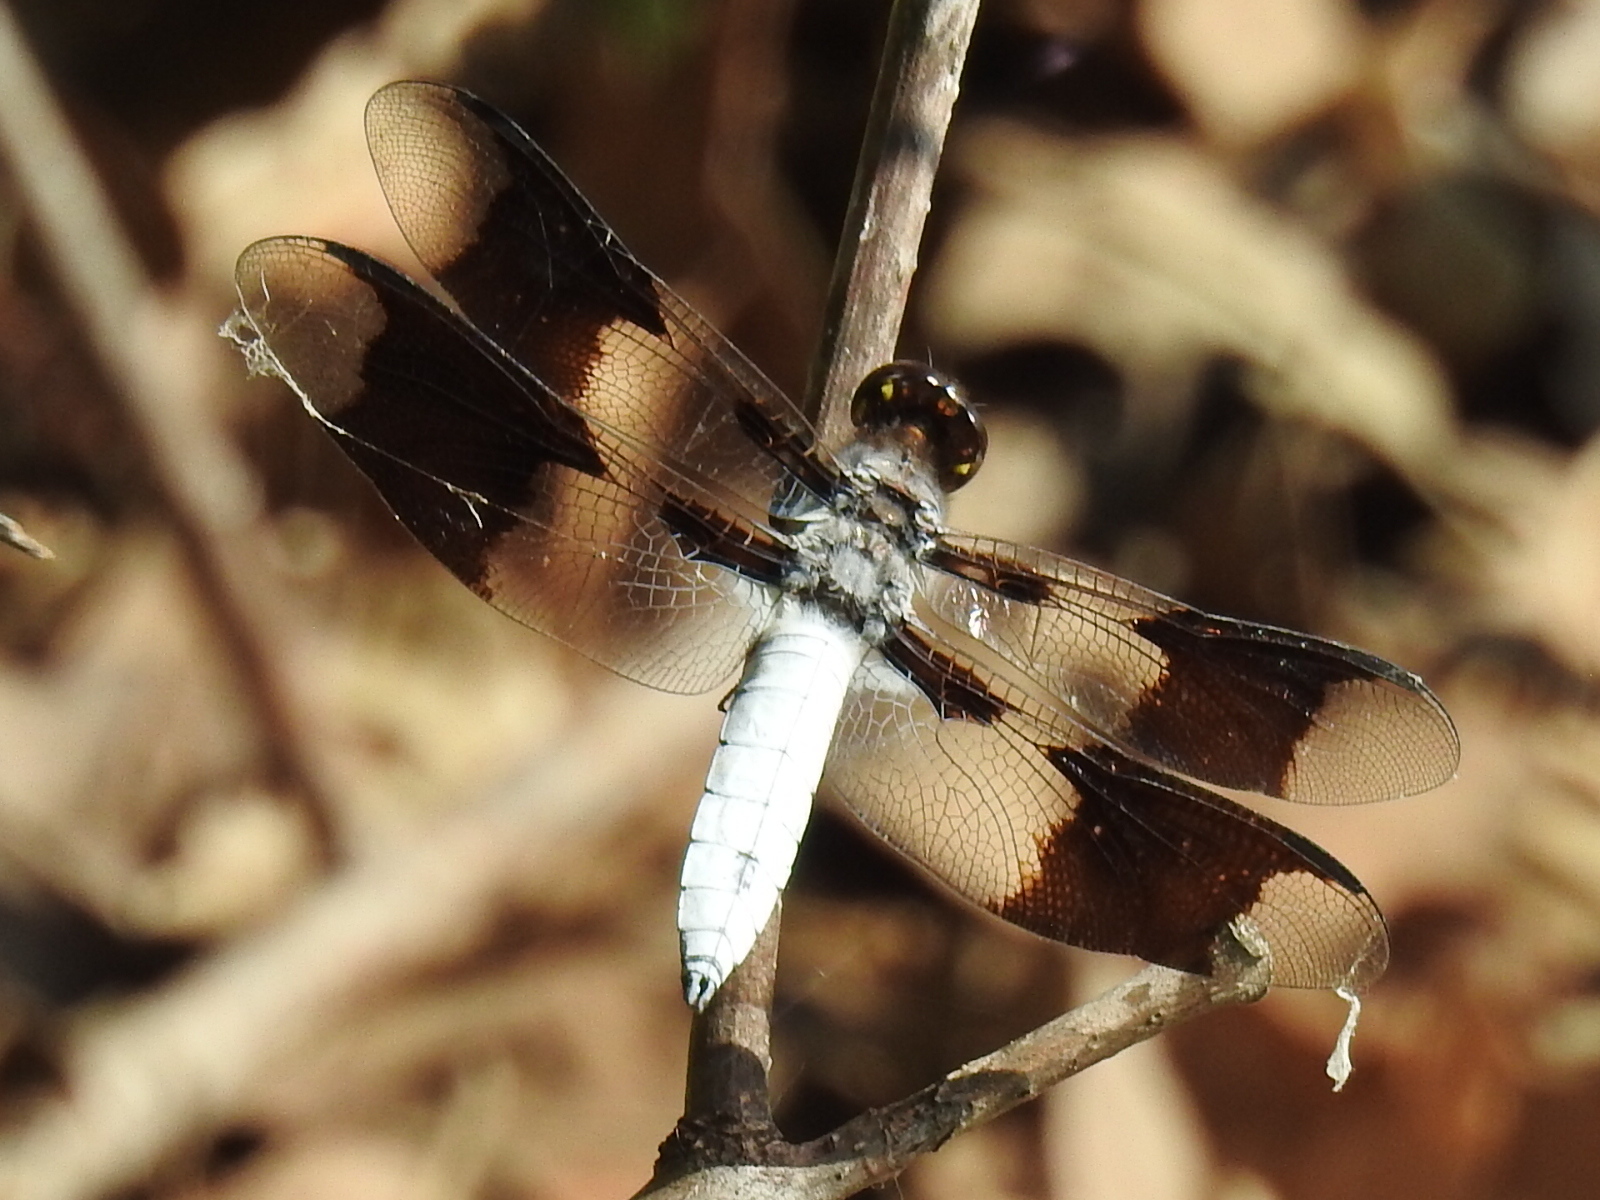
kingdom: Animalia
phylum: Arthropoda
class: Insecta
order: Odonata
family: Libellulidae
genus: Plathemis
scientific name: Plathemis lydia
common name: Common whitetail
